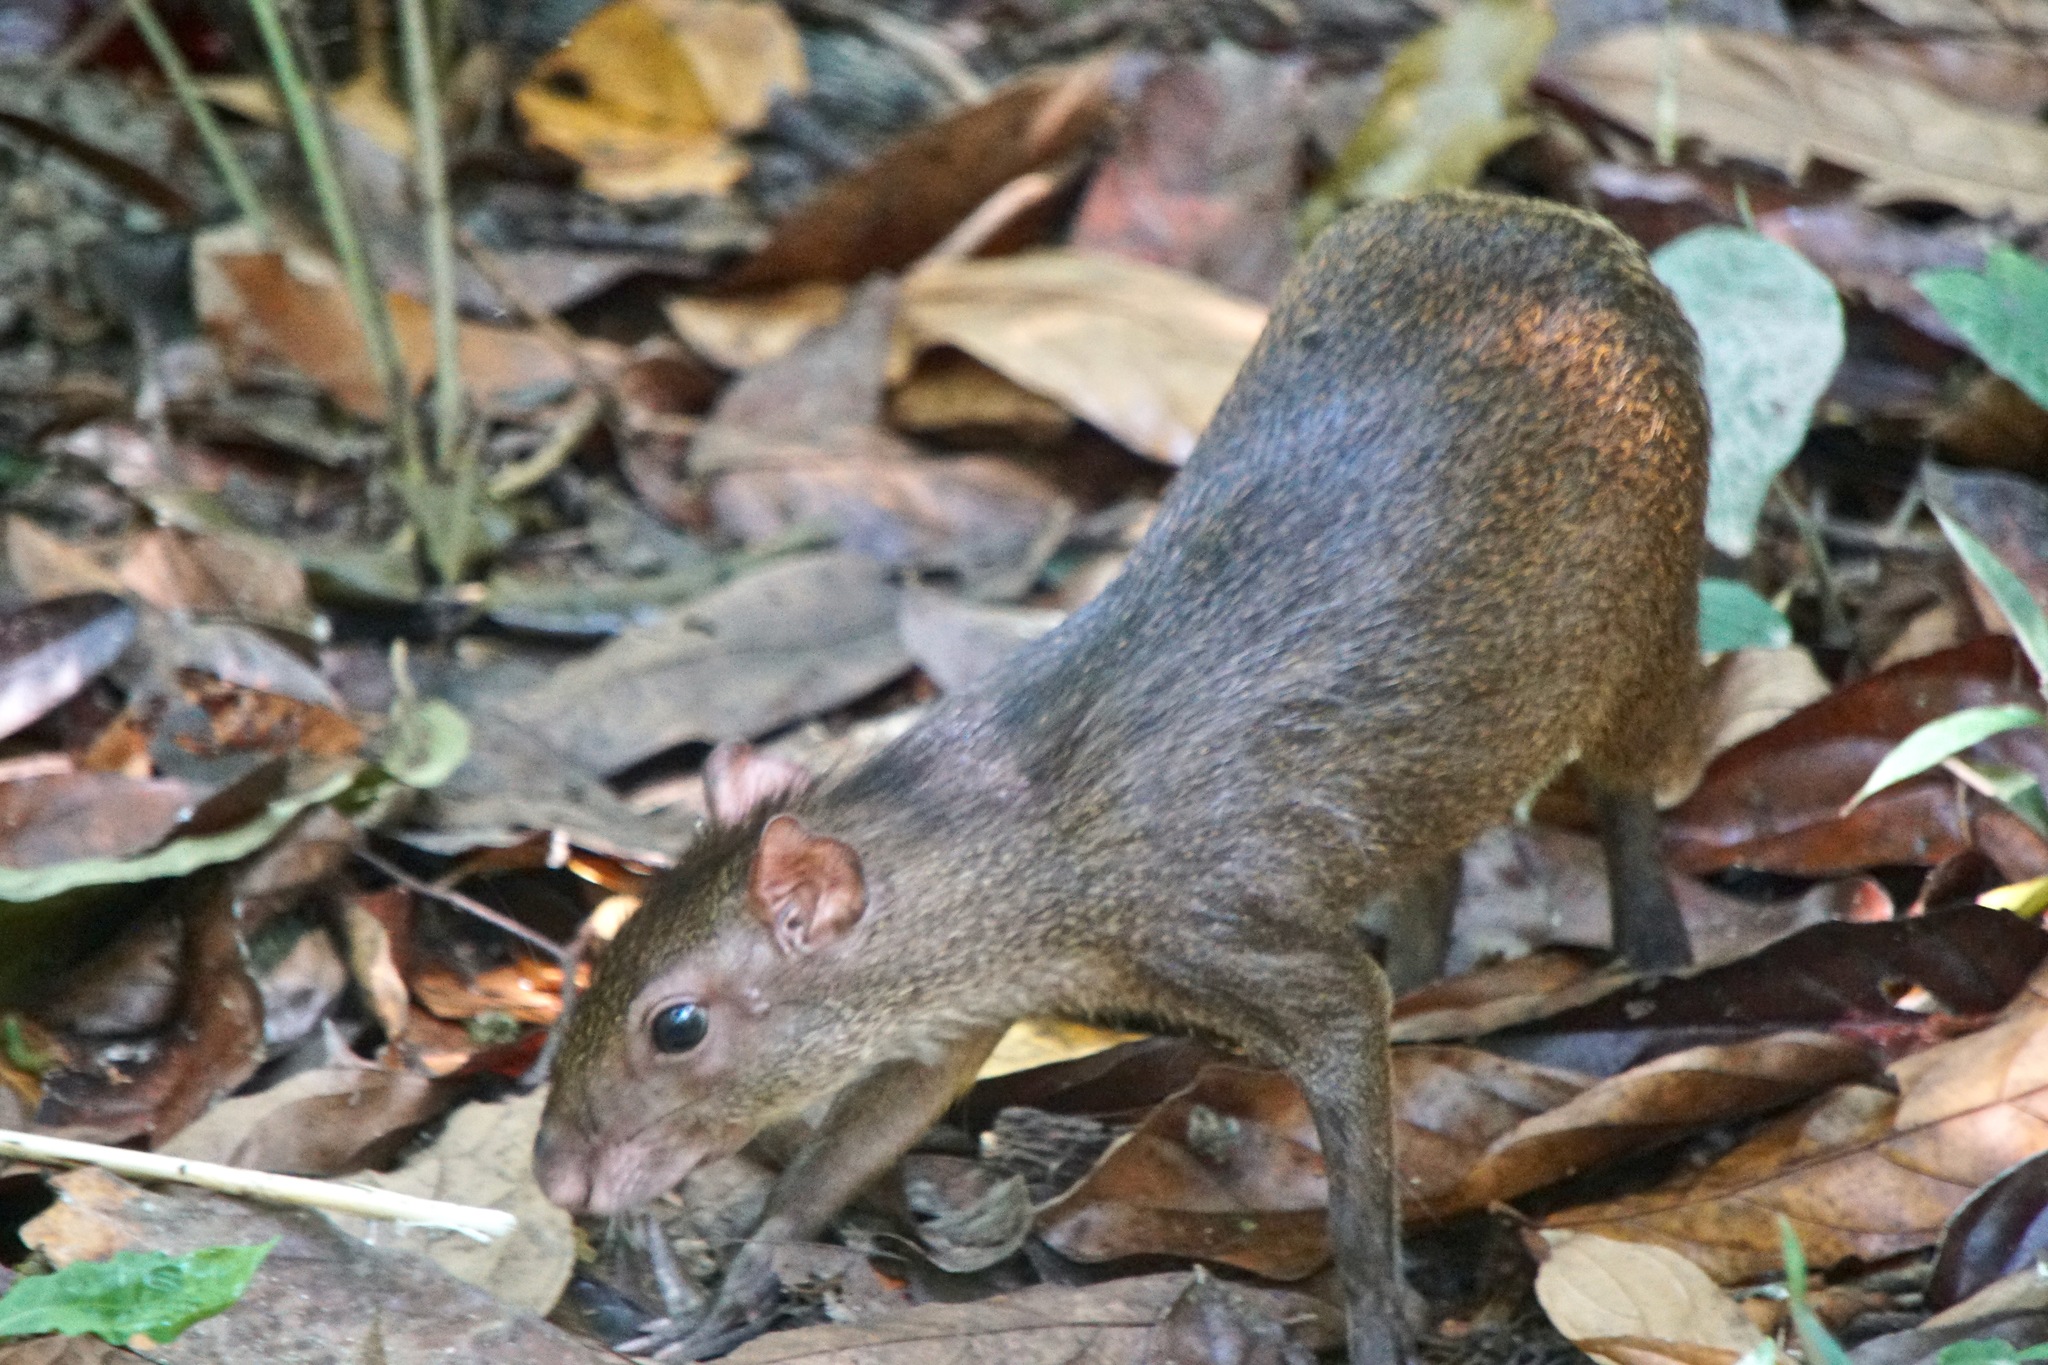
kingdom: Animalia
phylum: Chordata
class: Mammalia
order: Rodentia
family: Dasyproctidae
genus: Dasyprocta
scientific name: Dasyprocta punctata
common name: Central american agouti
